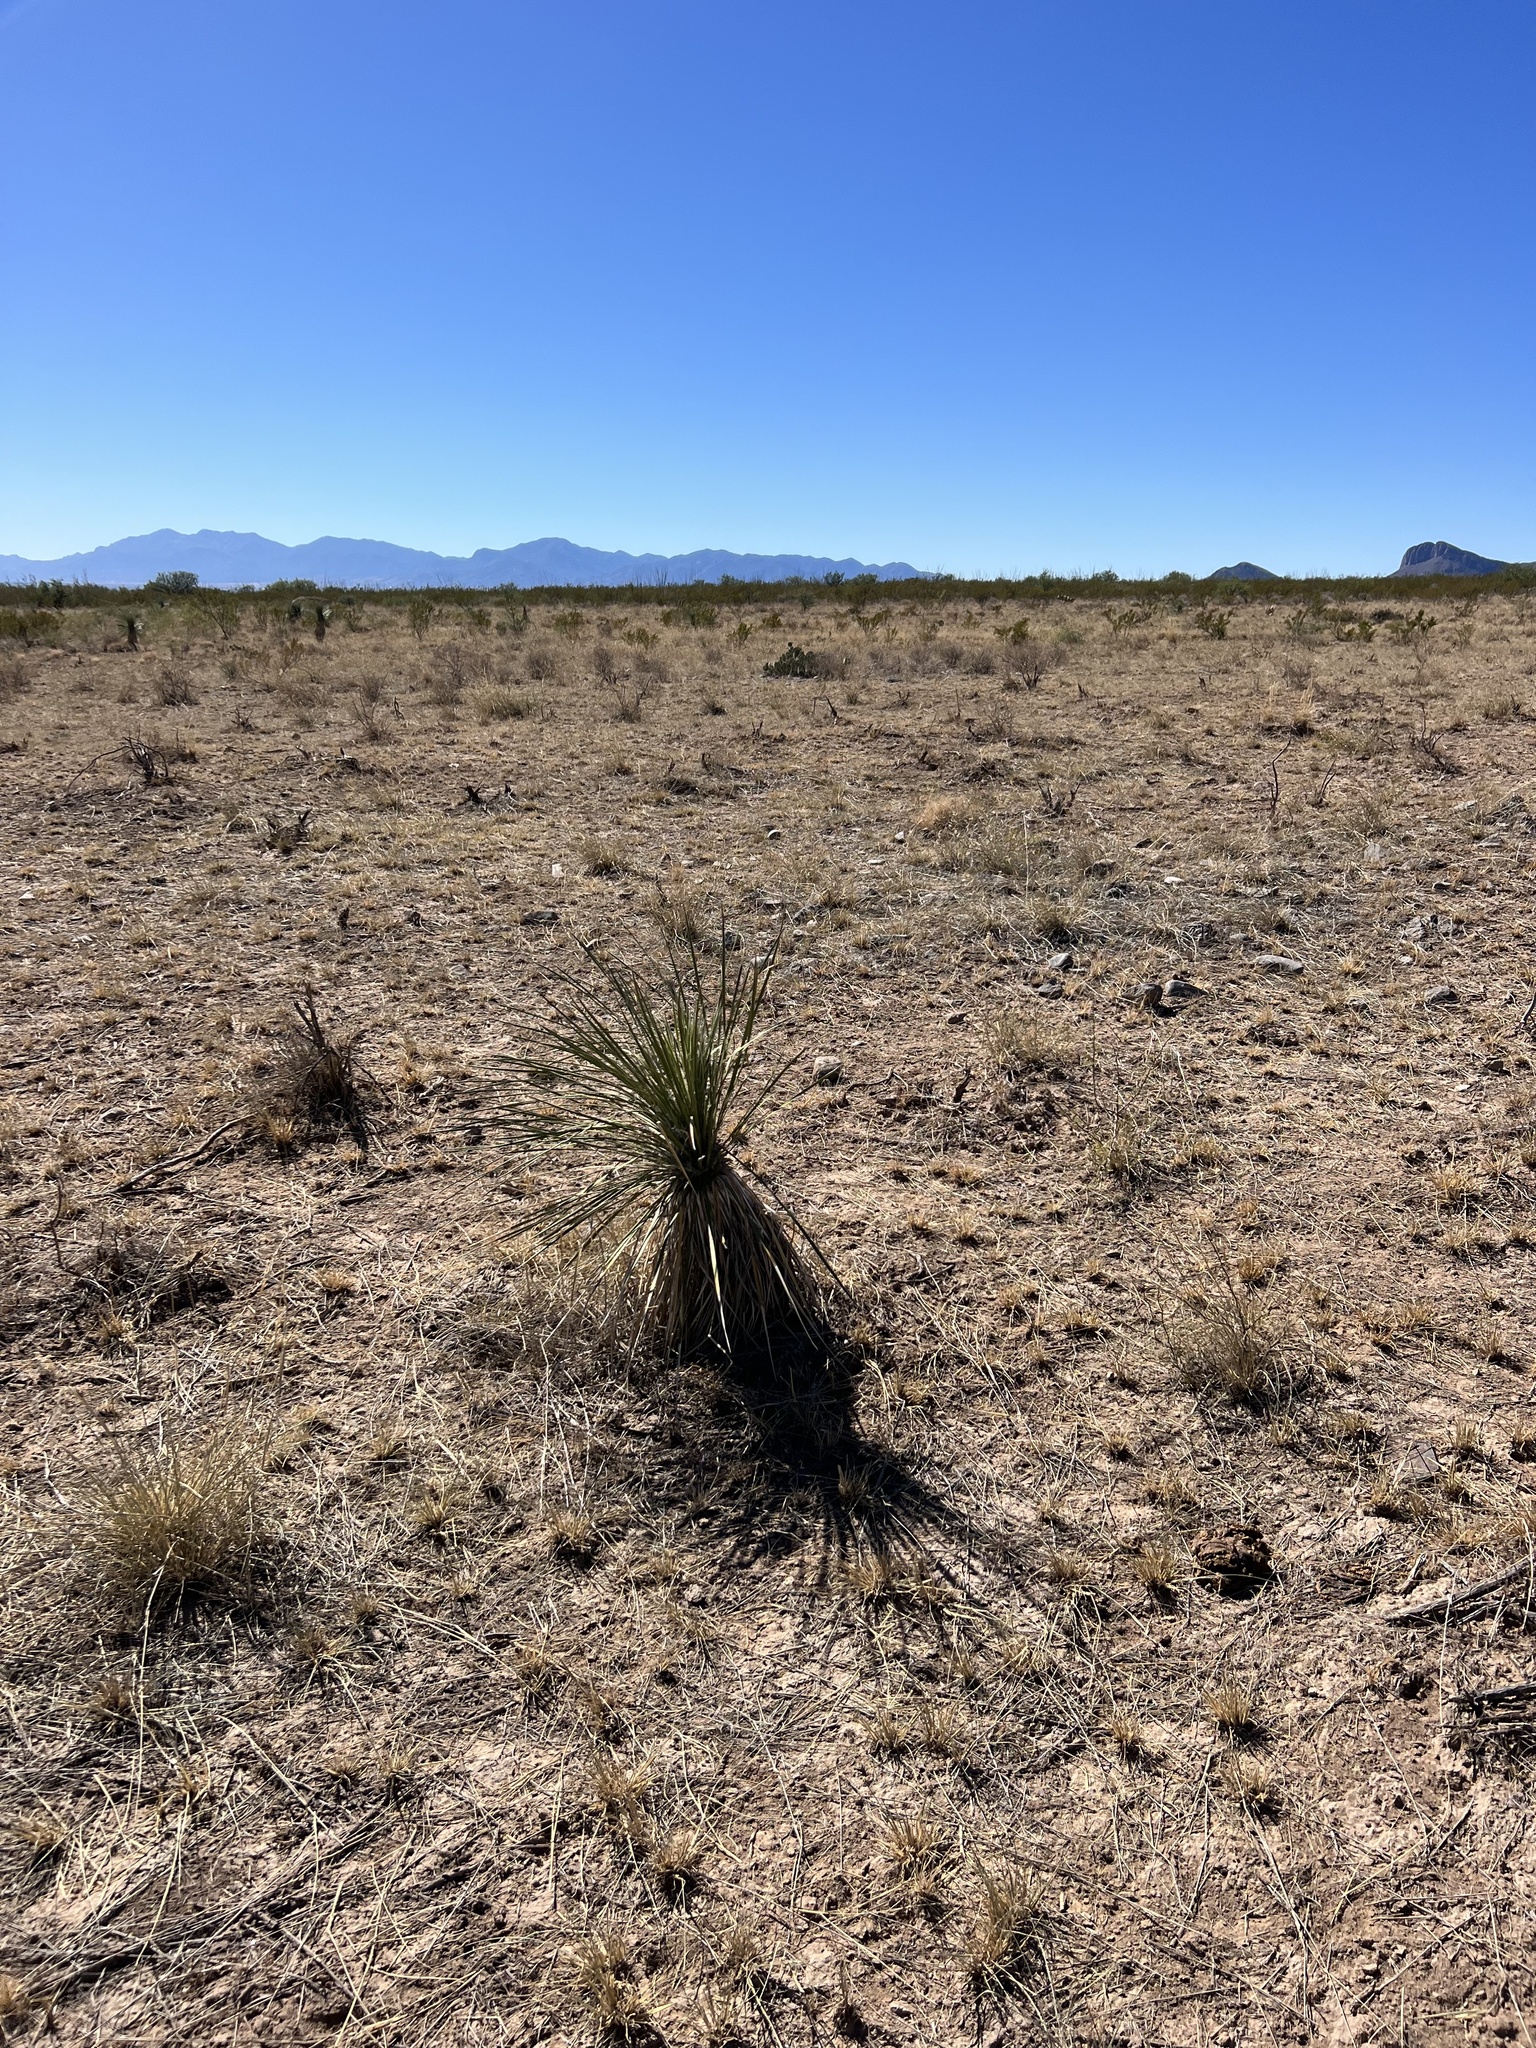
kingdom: Plantae
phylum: Tracheophyta
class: Liliopsida
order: Asparagales
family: Asparagaceae
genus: Yucca
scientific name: Yucca elata
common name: Palmella
